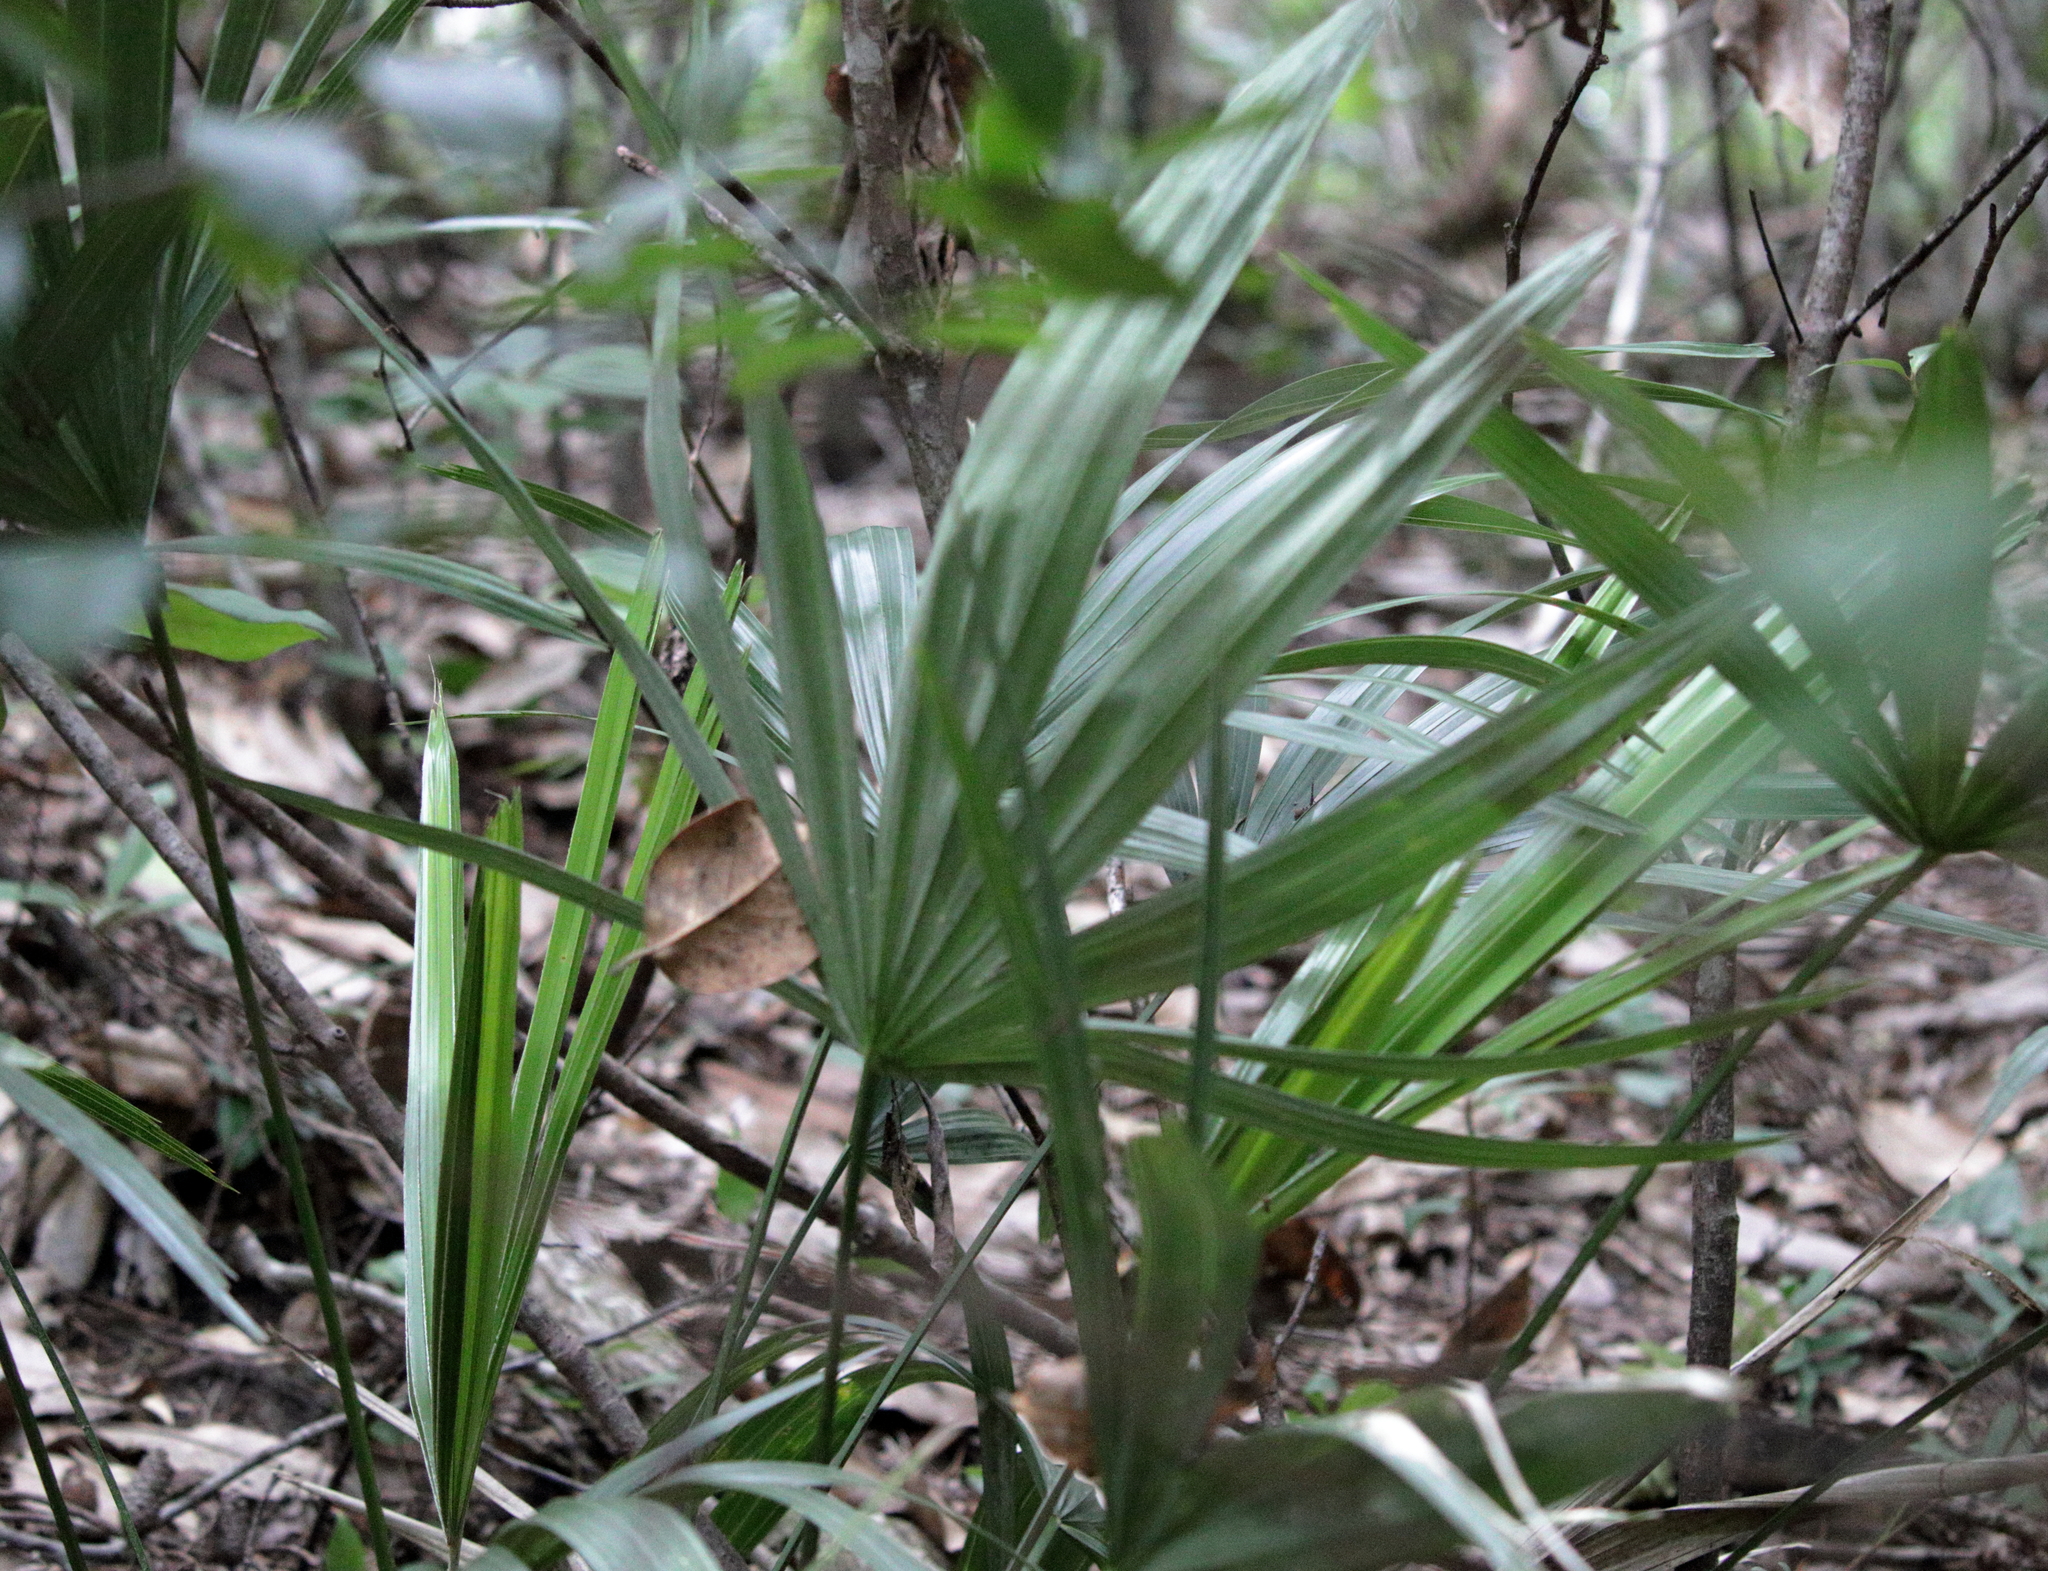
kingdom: Plantae
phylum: Tracheophyta
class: Liliopsida
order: Arecales
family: Arecaceae
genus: Rhapidophyllum
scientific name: Rhapidophyllum hystrix
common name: Porcupine palm
